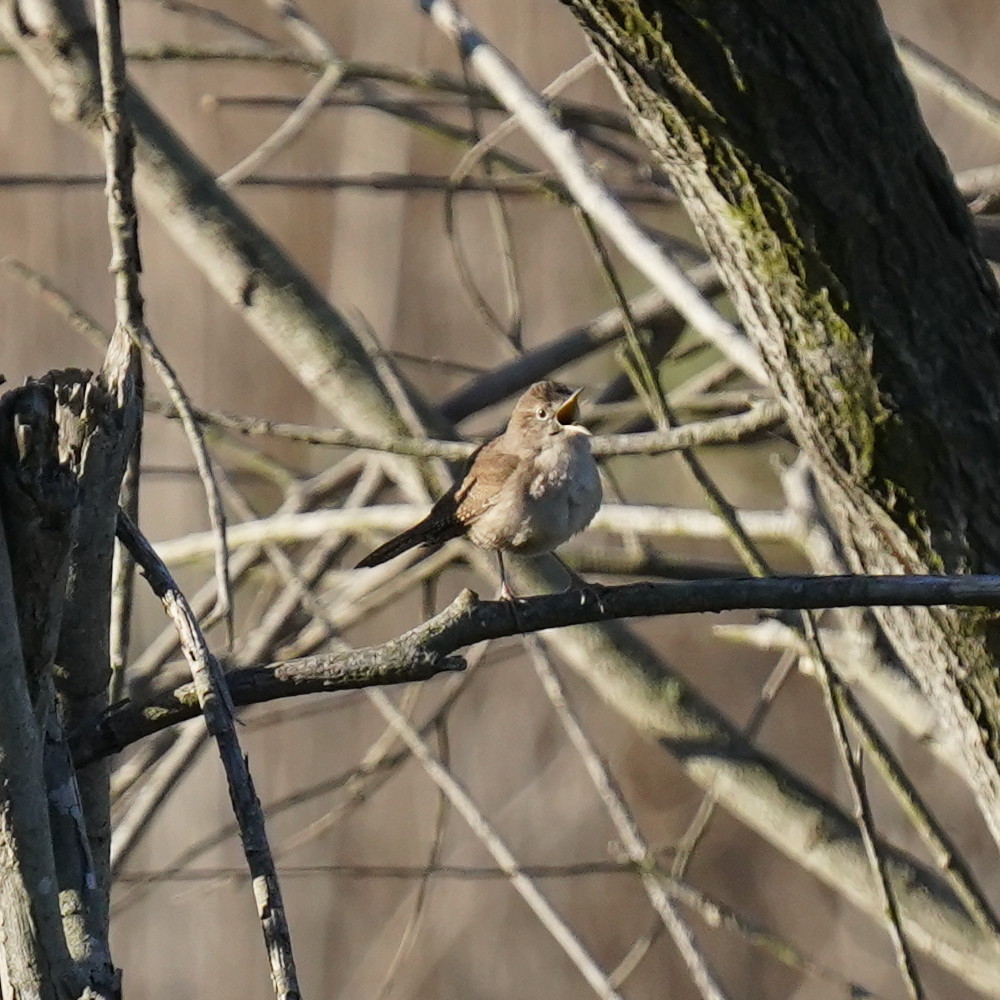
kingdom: Animalia
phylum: Chordata
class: Aves
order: Passeriformes
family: Troglodytidae
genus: Troglodytes
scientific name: Troglodytes aedon
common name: House wren
